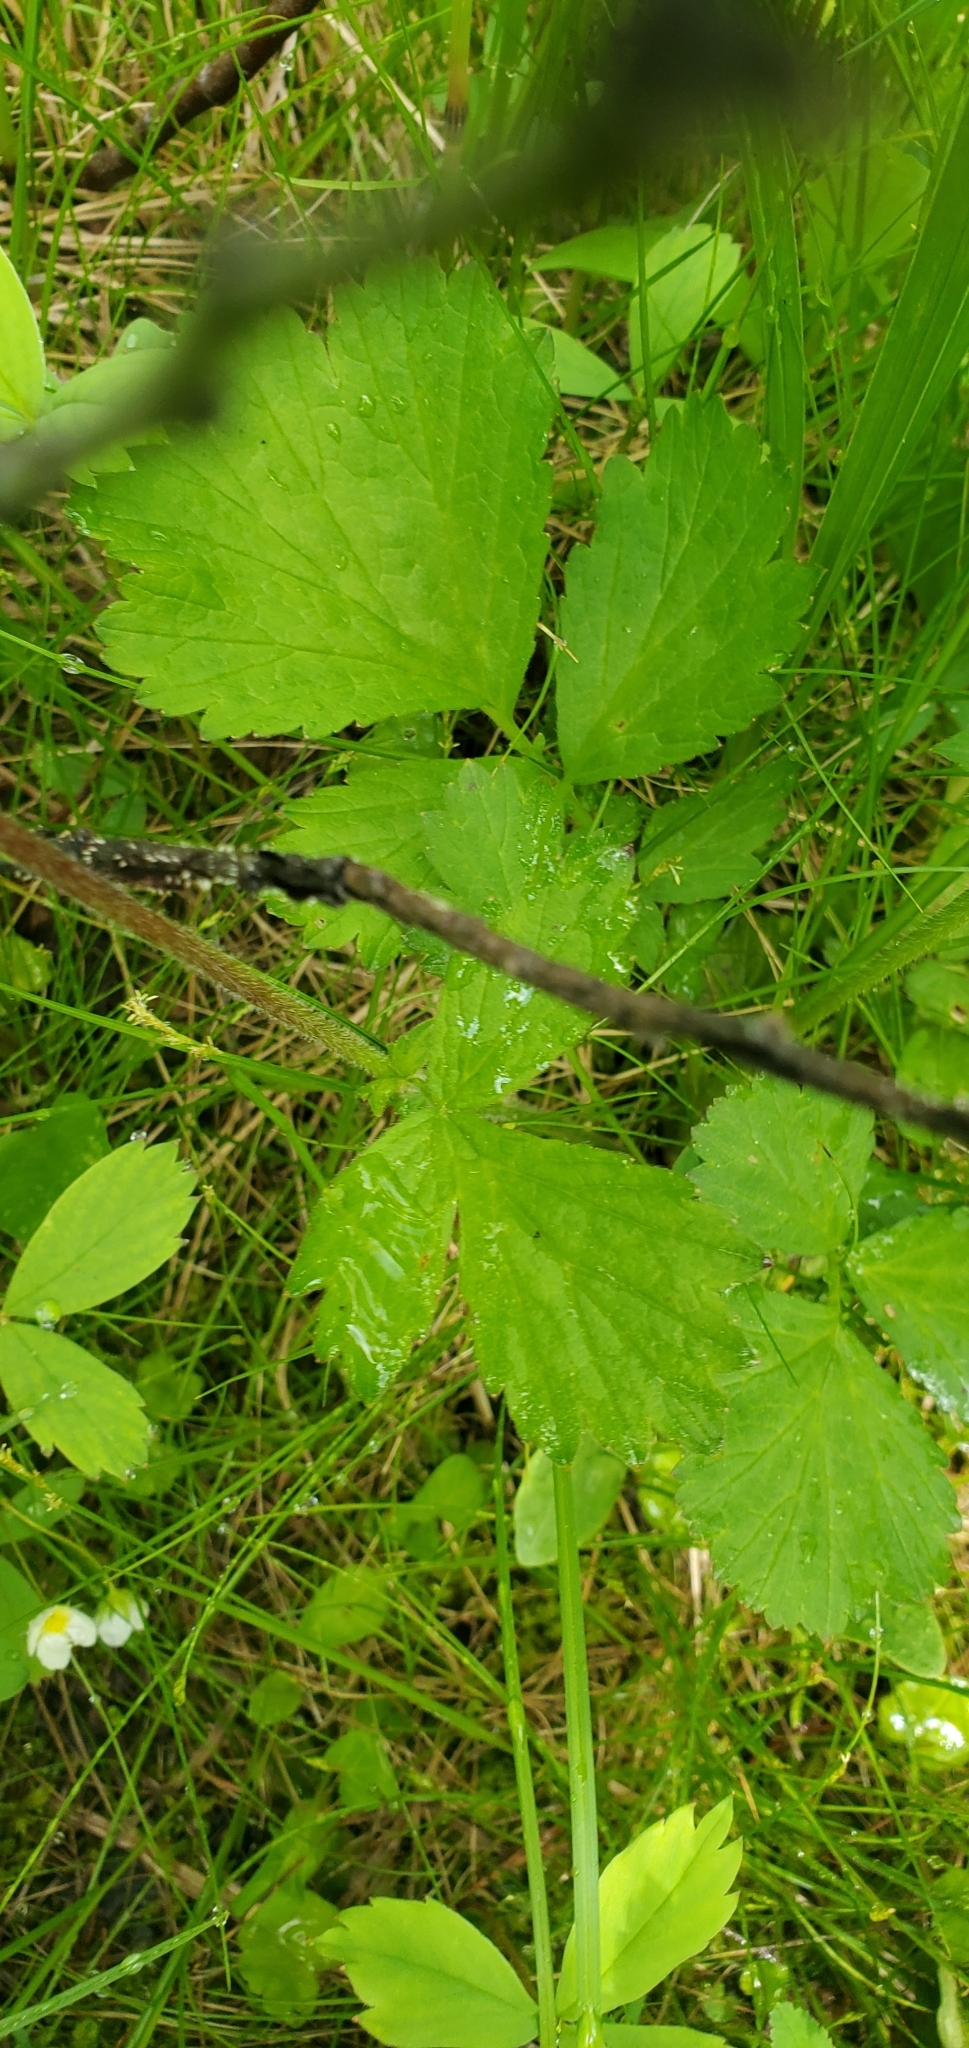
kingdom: Plantae
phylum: Tracheophyta
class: Magnoliopsida
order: Rosales
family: Rosaceae
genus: Geum
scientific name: Geum rivale
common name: Water avens
